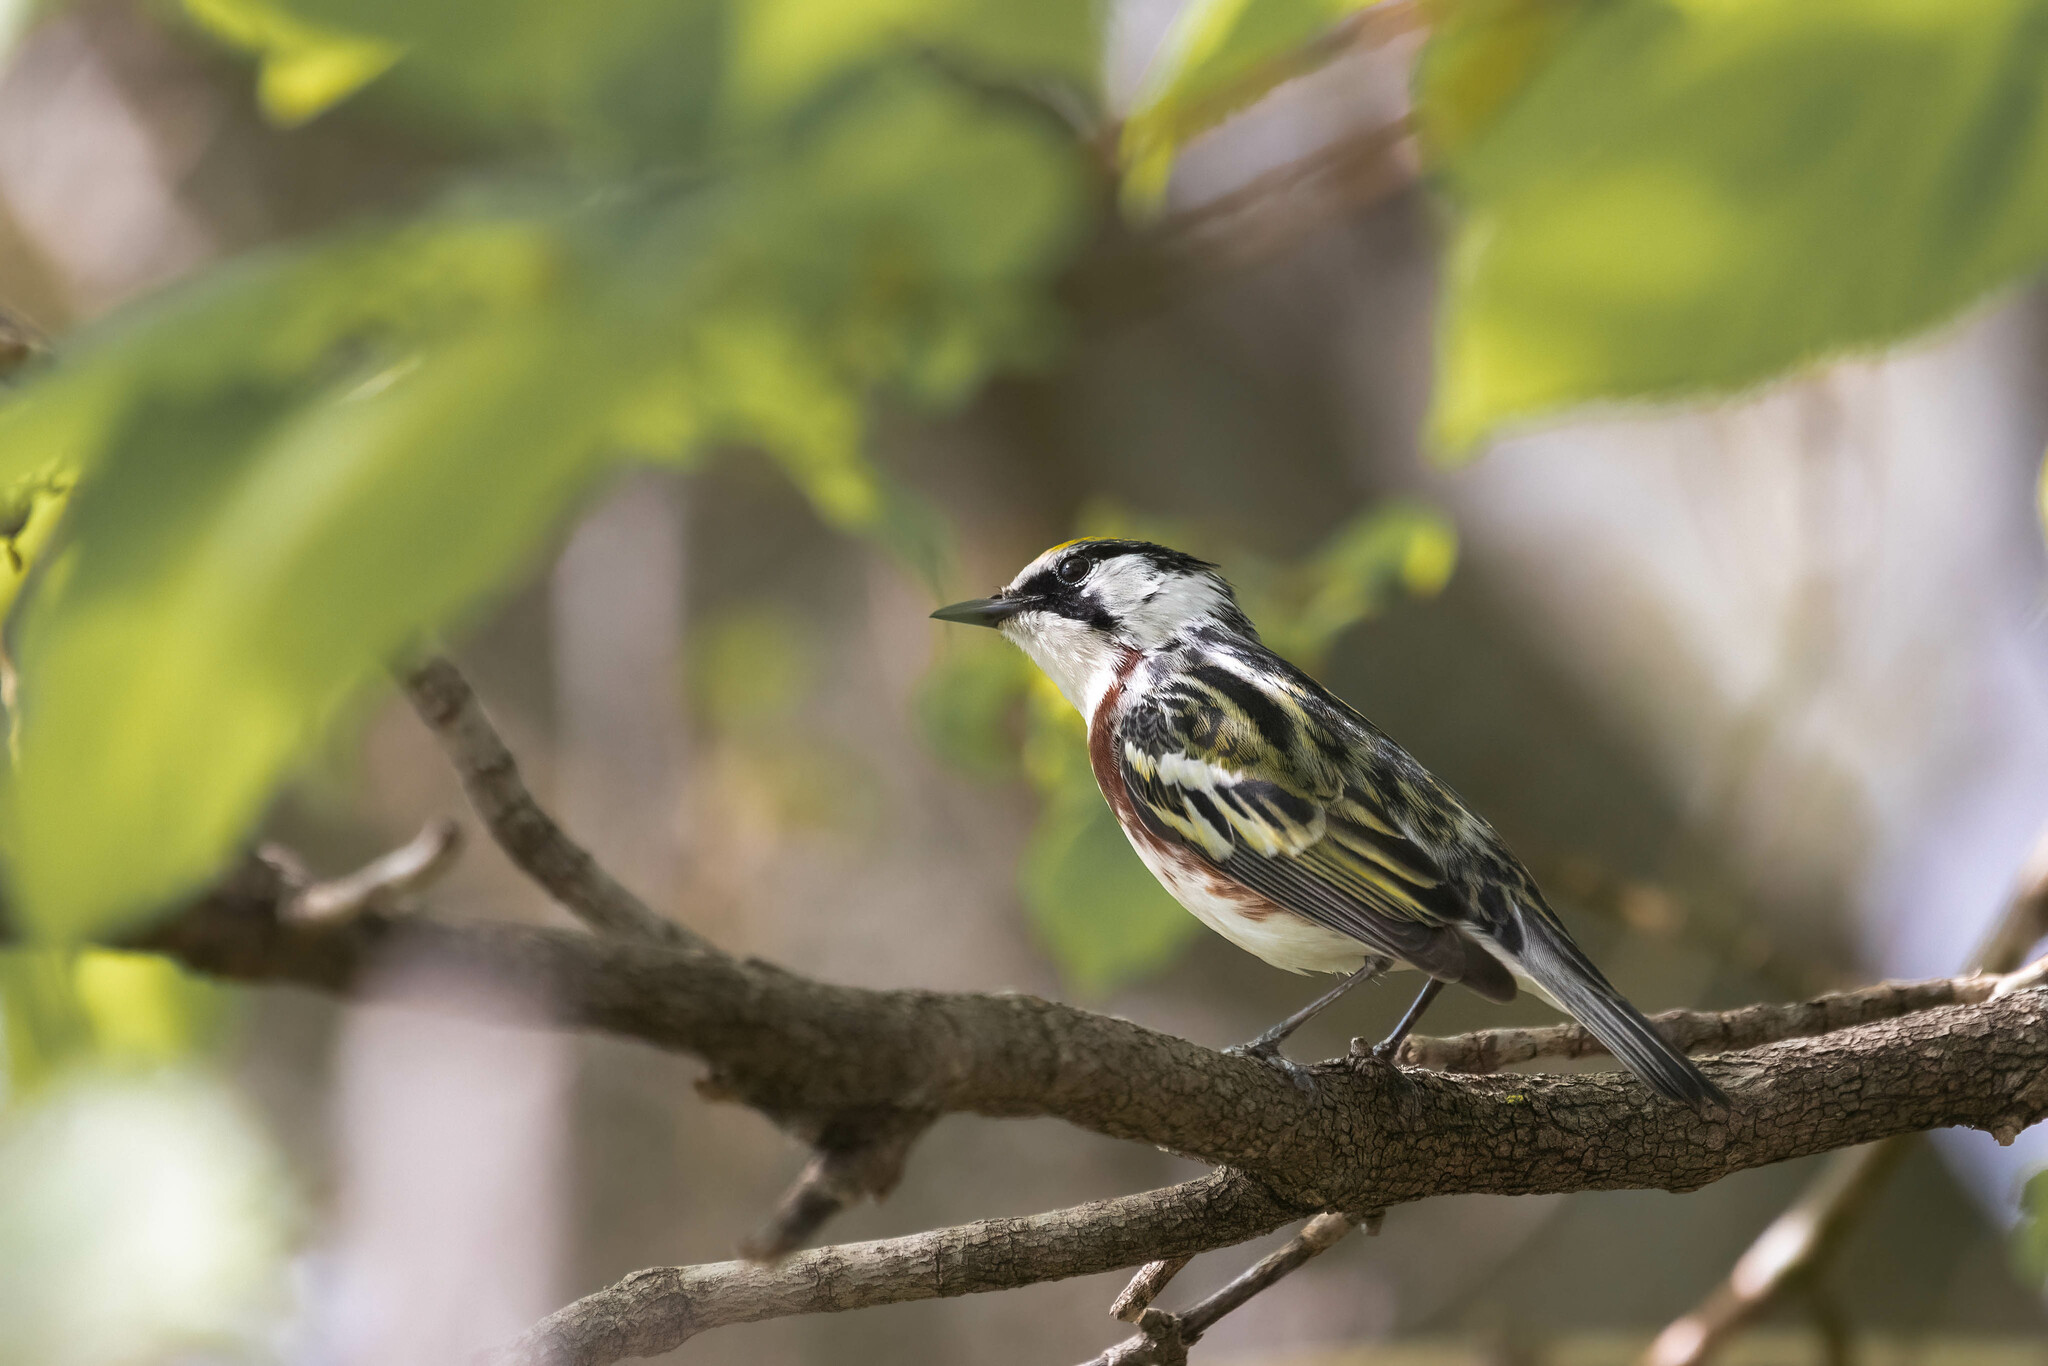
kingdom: Animalia
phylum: Chordata
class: Aves
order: Passeriformes
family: Parulidae
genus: Setophaga
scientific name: Setophaga pensylvanica
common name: Chestnut-sided warbler
